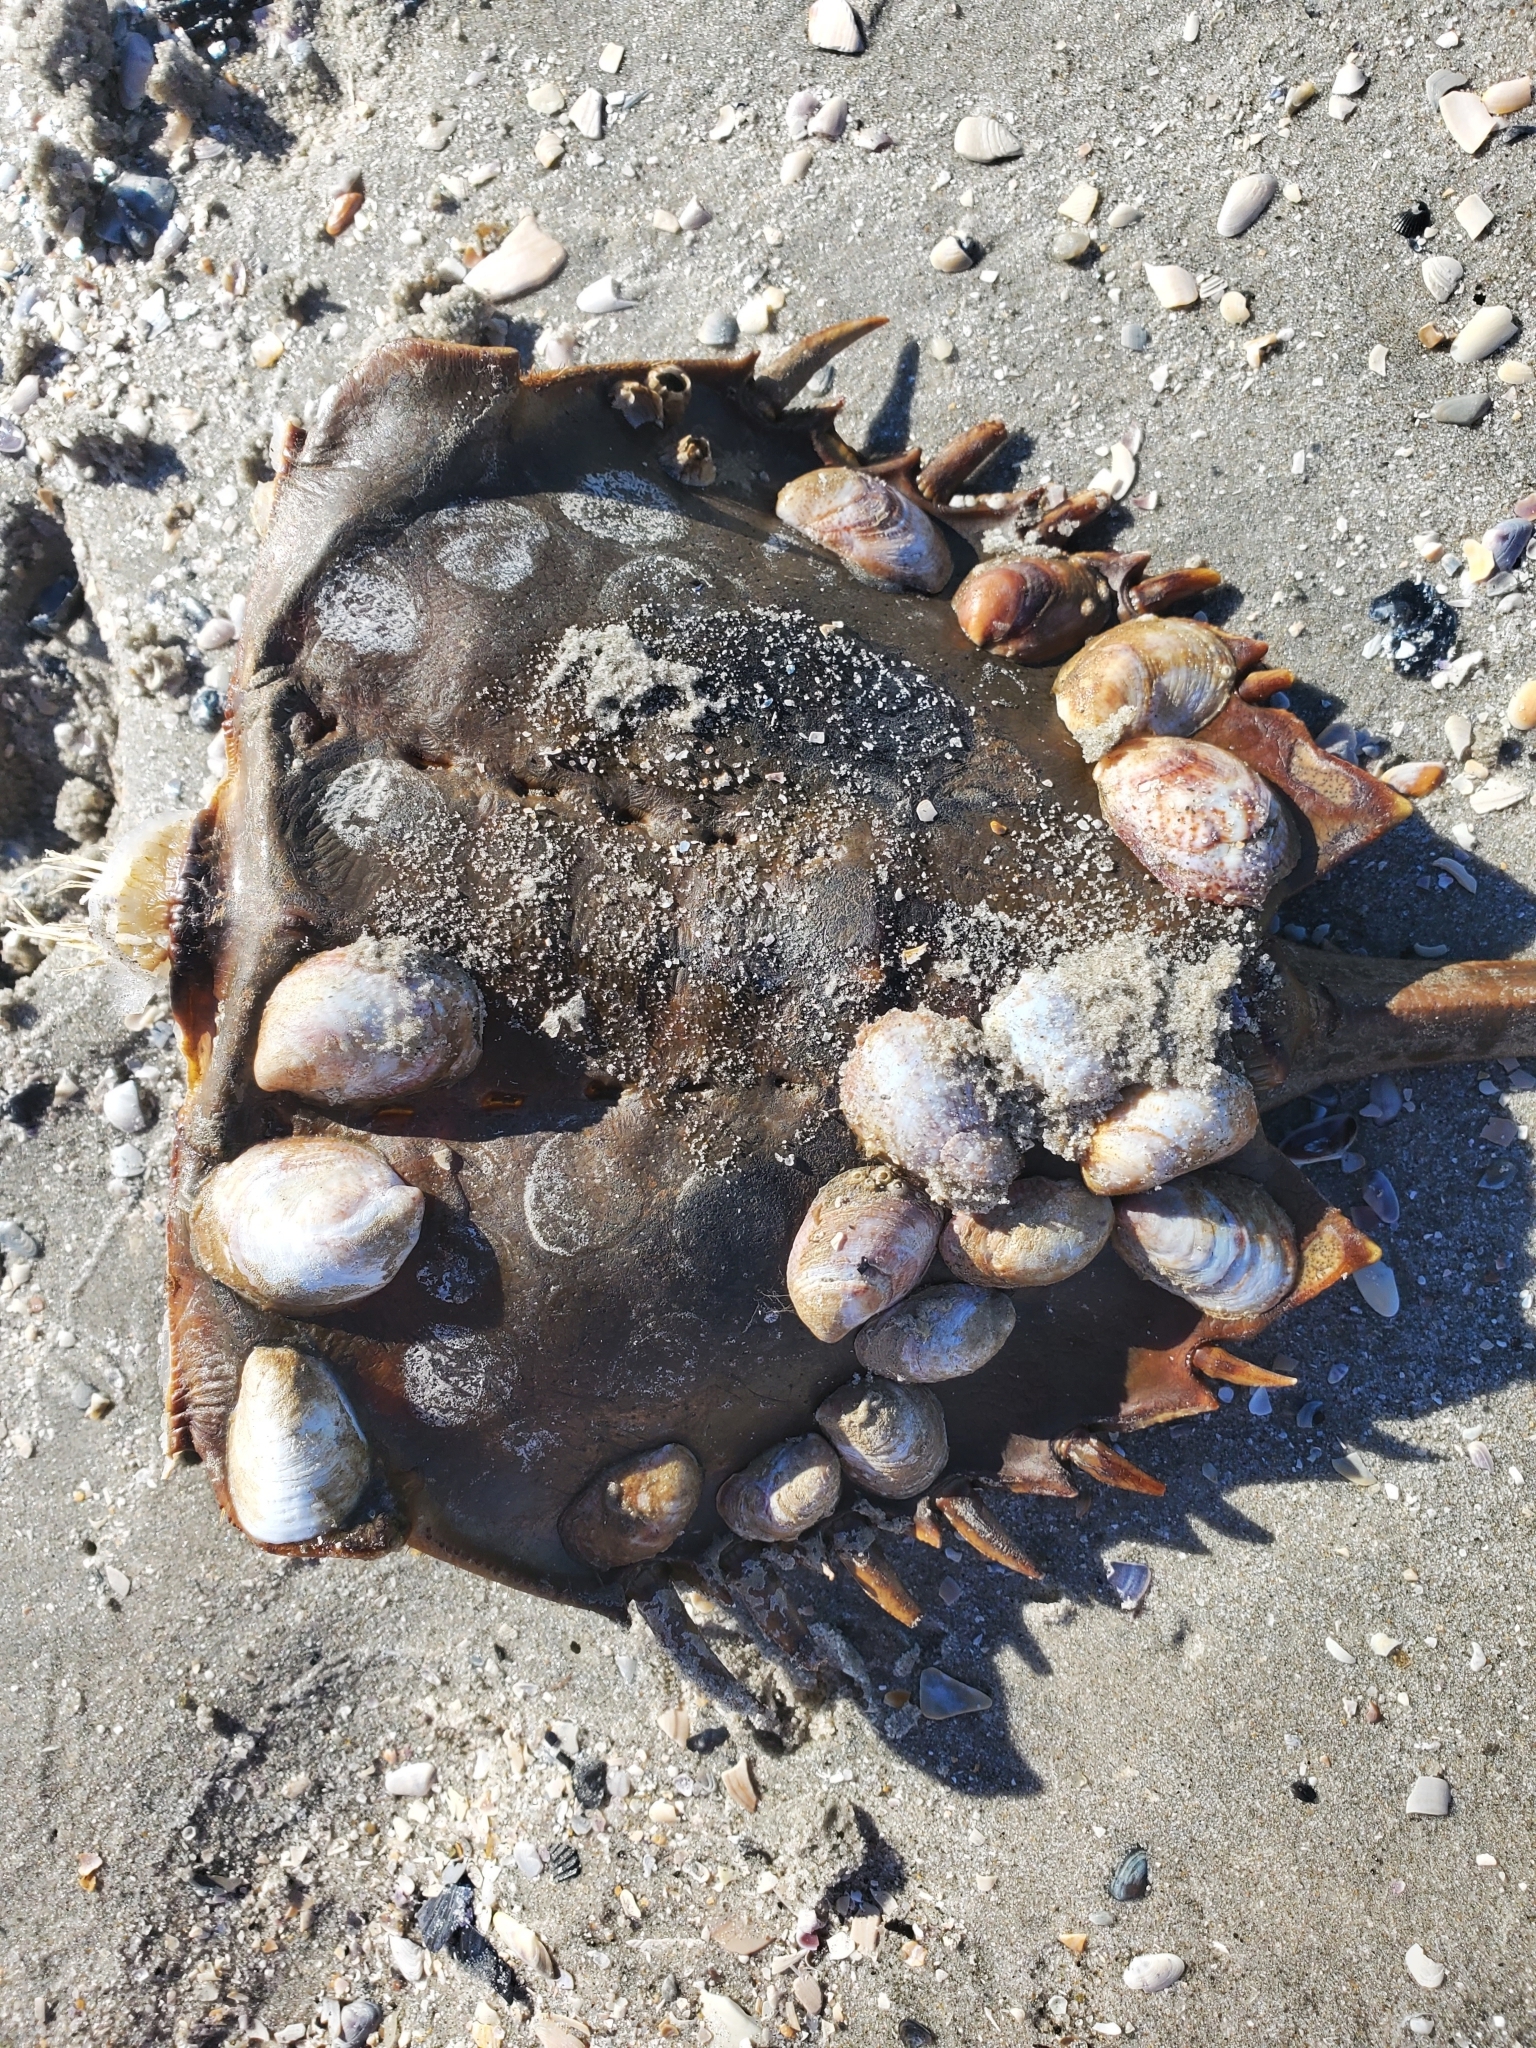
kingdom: Animalia
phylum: Mollusca
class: Gastropoda
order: Littorinimorpha
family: Calyptraeidae
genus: Crepidula
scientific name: Crepidula fornicata
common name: Slipper limpet
